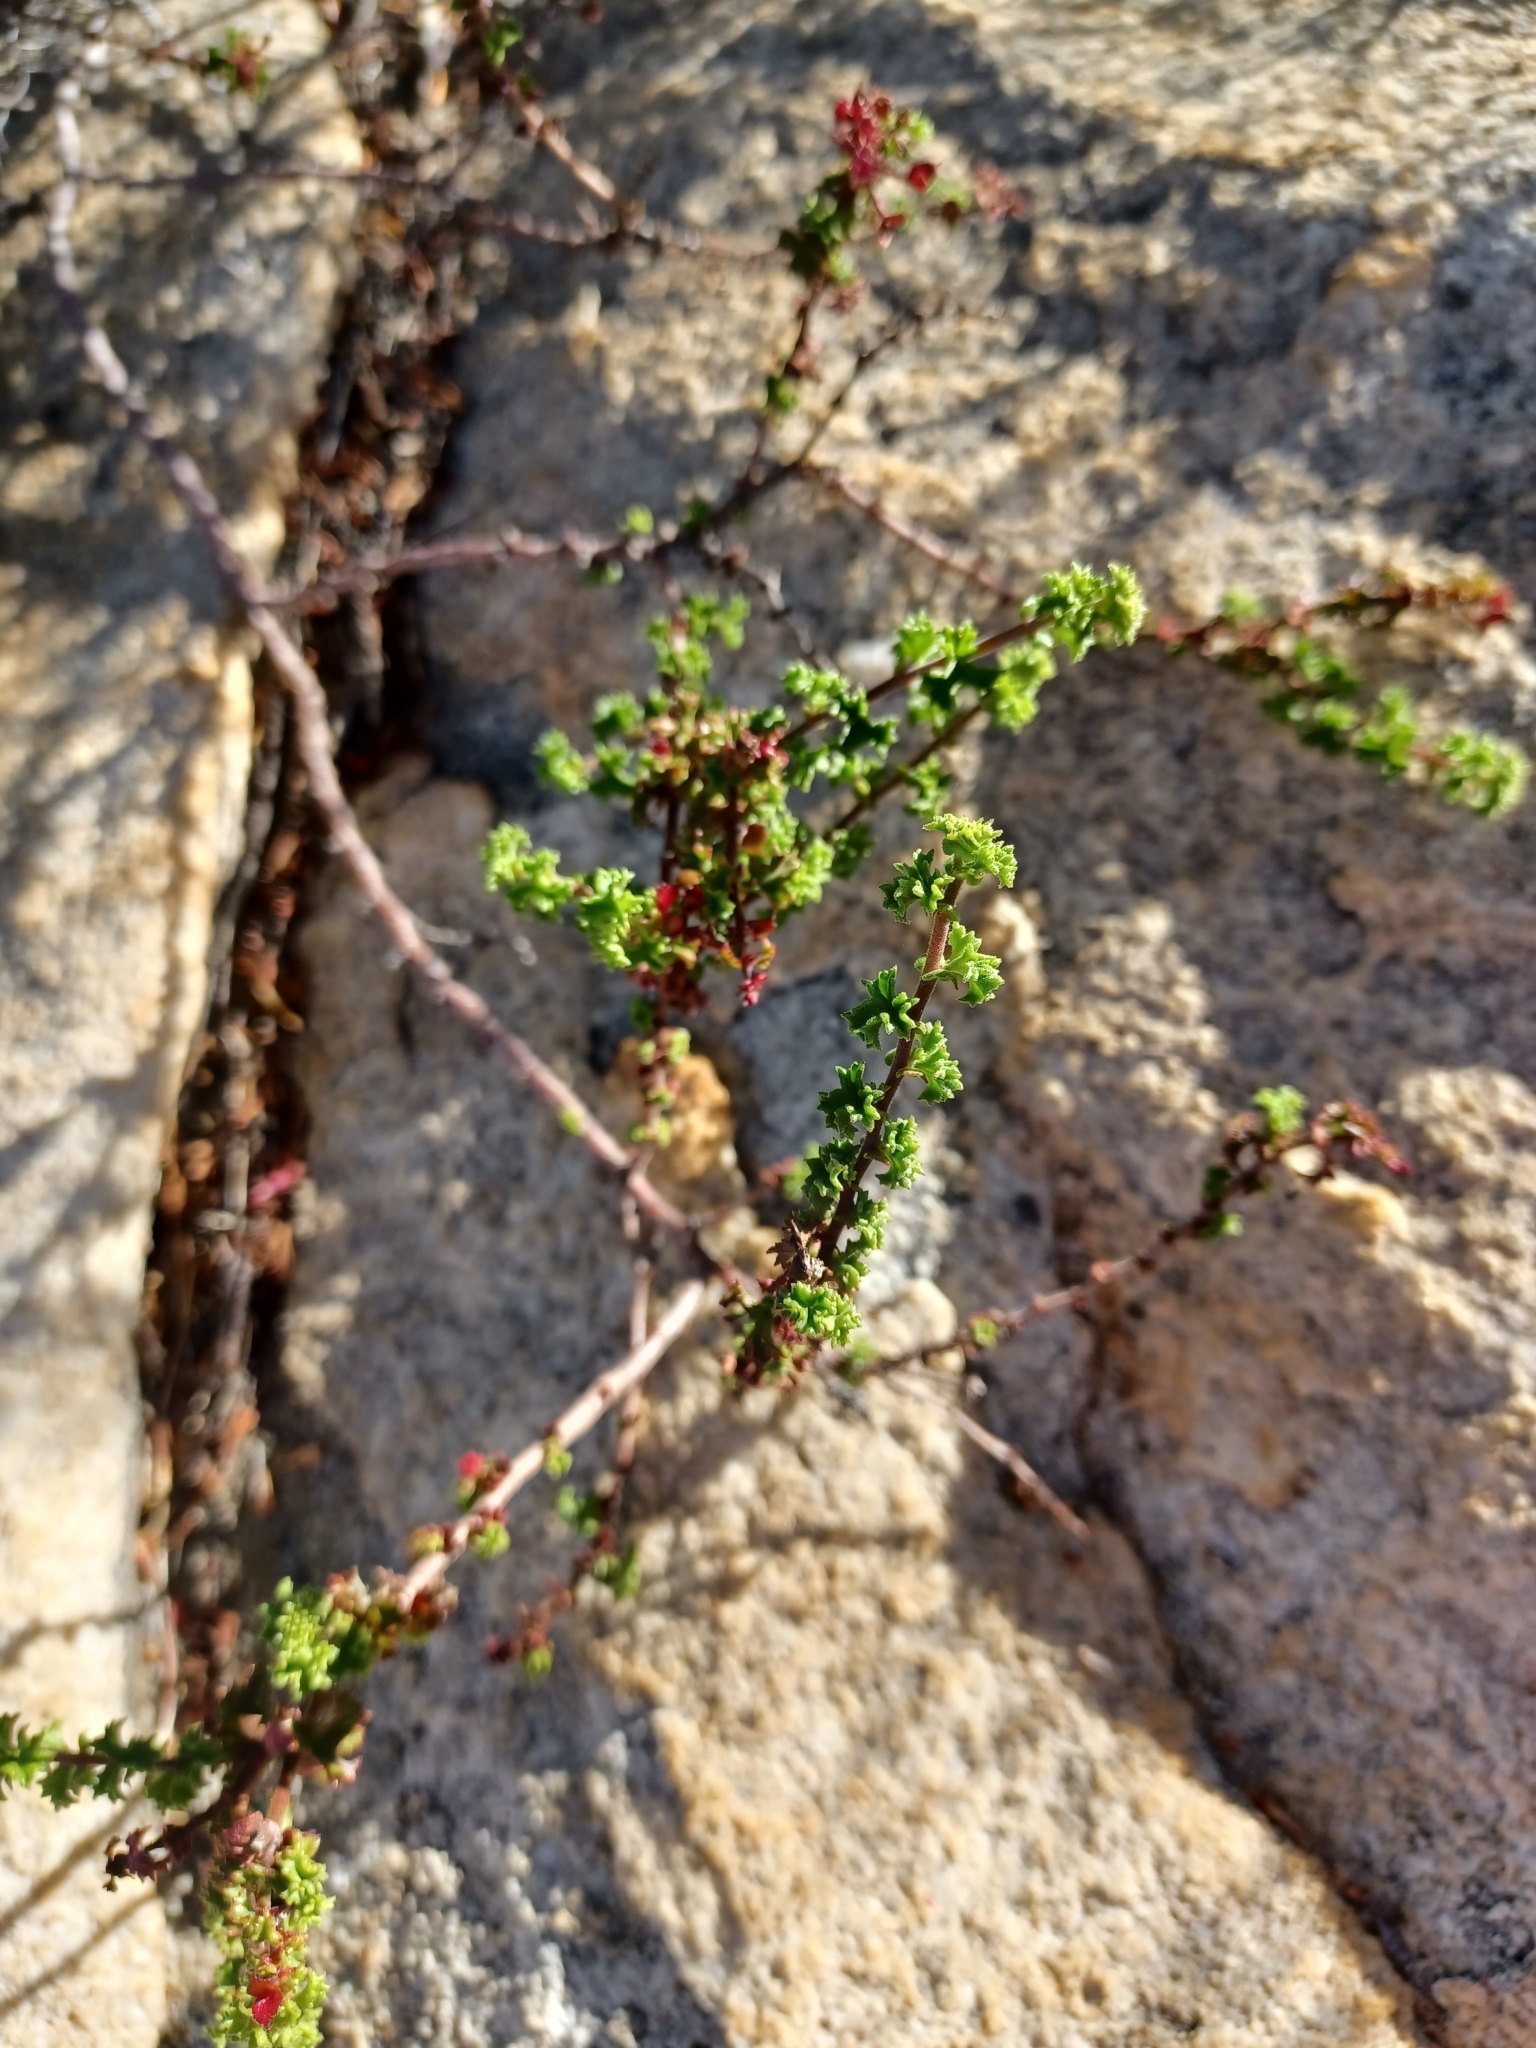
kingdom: Plantae
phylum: Tracheophyta
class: Magnoliopsida
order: Geraniales
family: Geraniaceae
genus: Pelargonium
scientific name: Pelargonium crispum
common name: Crisped-leaf pelargonium
